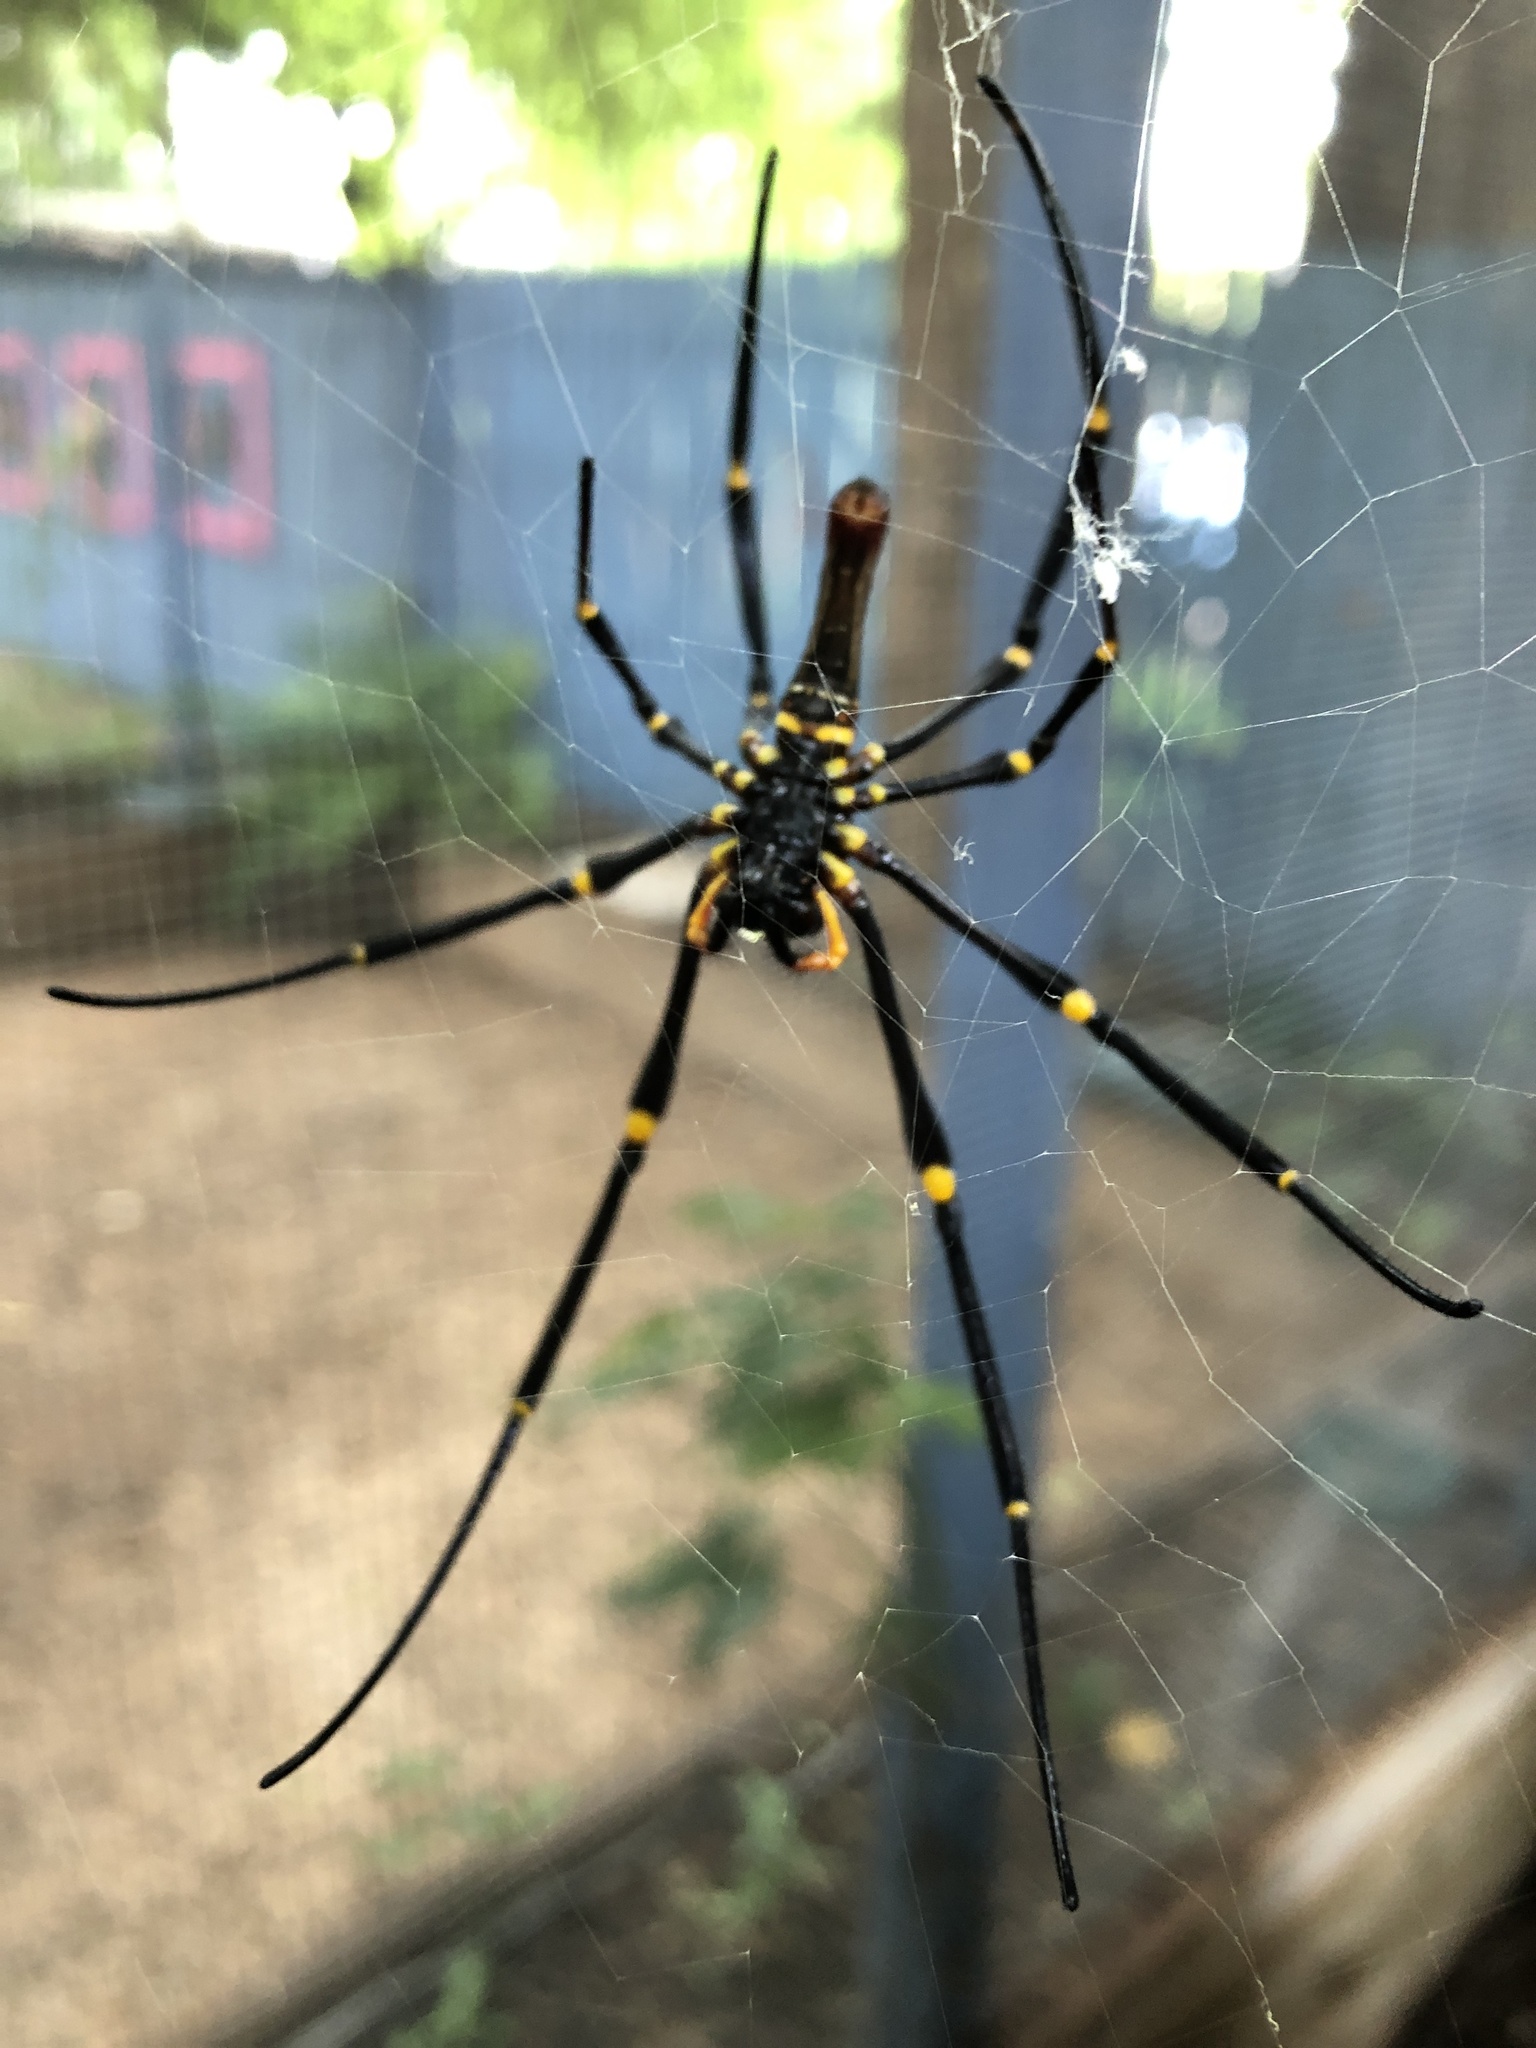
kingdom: Animalia
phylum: Arthropoda
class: Arachnida
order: Araneae
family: Araneidae
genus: Nephila
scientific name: Nephila pilipes
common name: Giant golden orb weaver
